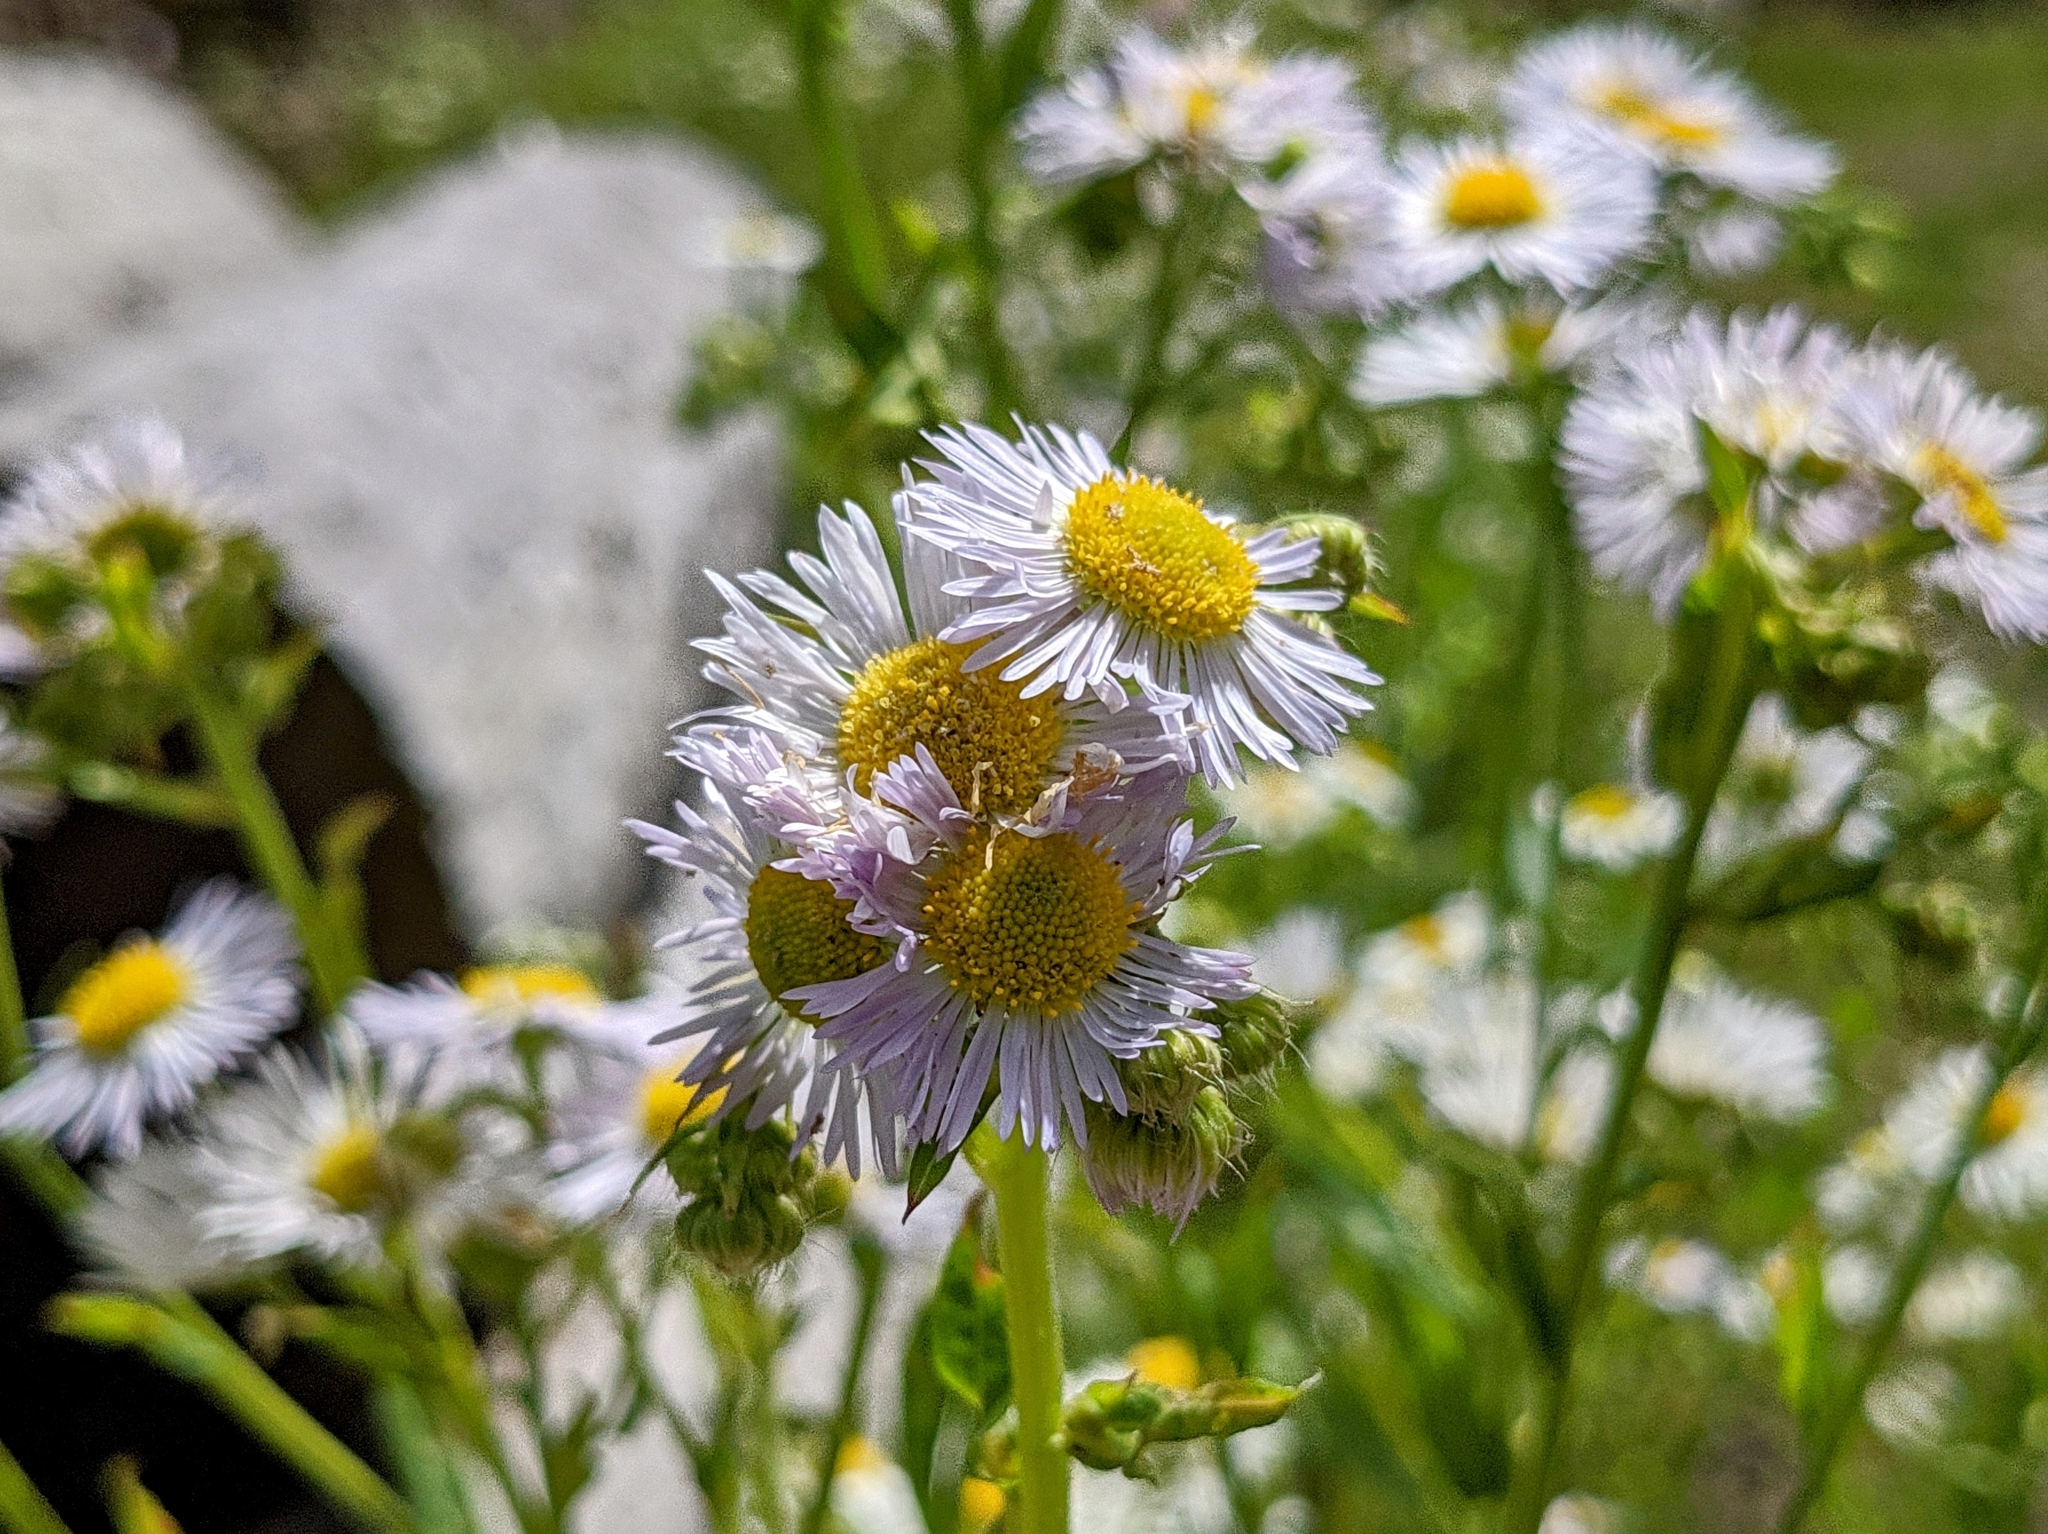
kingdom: Plantae
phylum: Tracheophyta
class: Magnoliopsida
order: Asterales
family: Asteraceae
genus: Erigeron
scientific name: Erigeron annuus
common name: Tall fleabane
